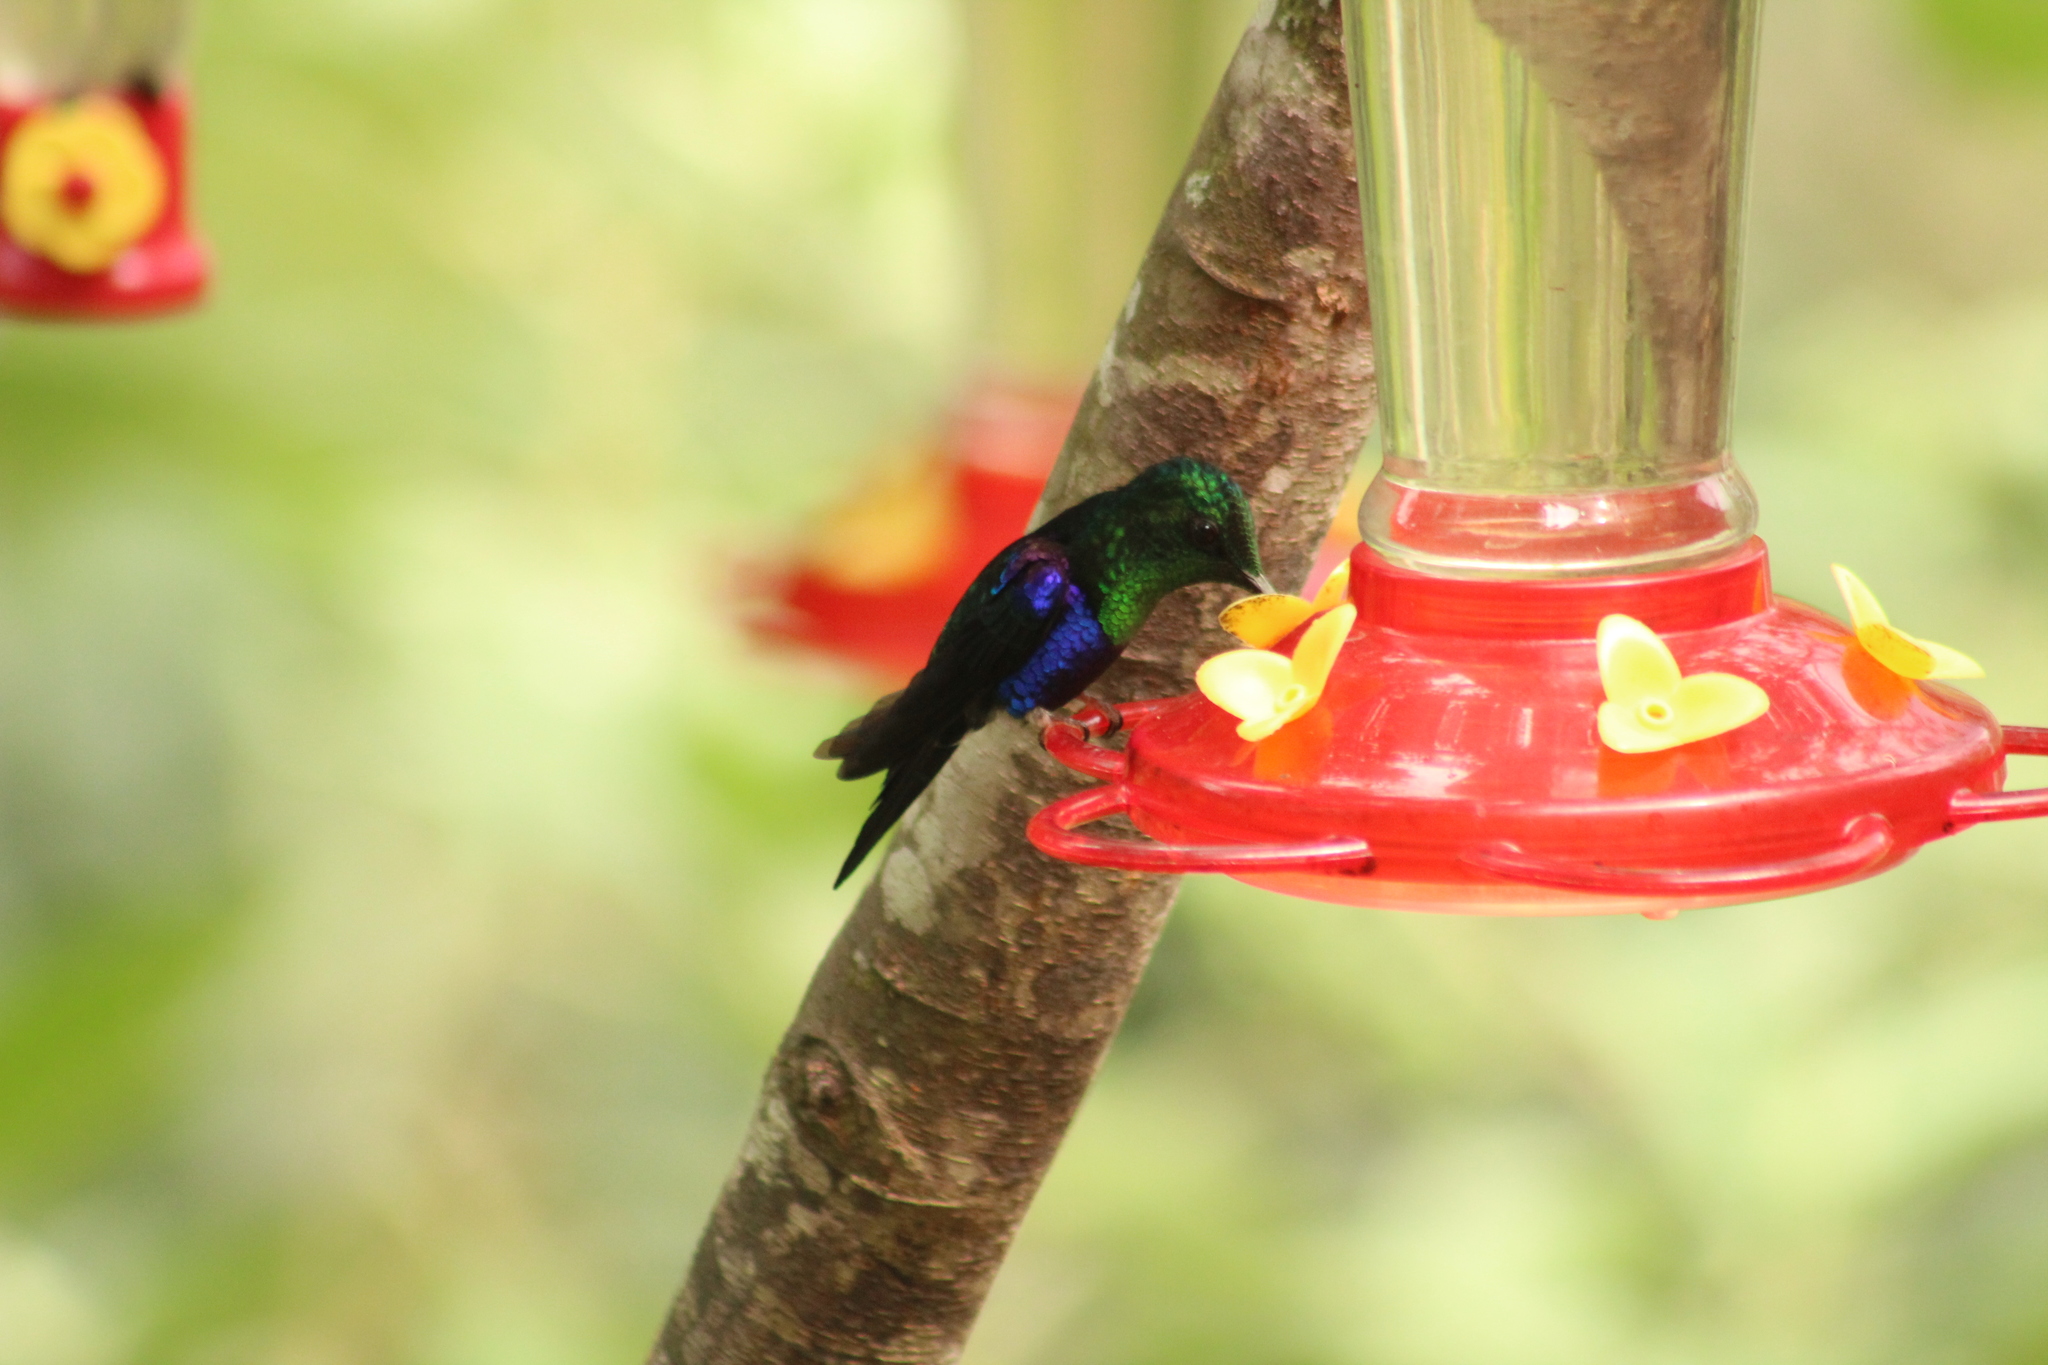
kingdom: Animalia
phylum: Chordata
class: Aves
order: Apodiformes
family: Trochilidae
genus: Thalurania
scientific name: Thalurania colombica
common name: Crowned woodnymph
